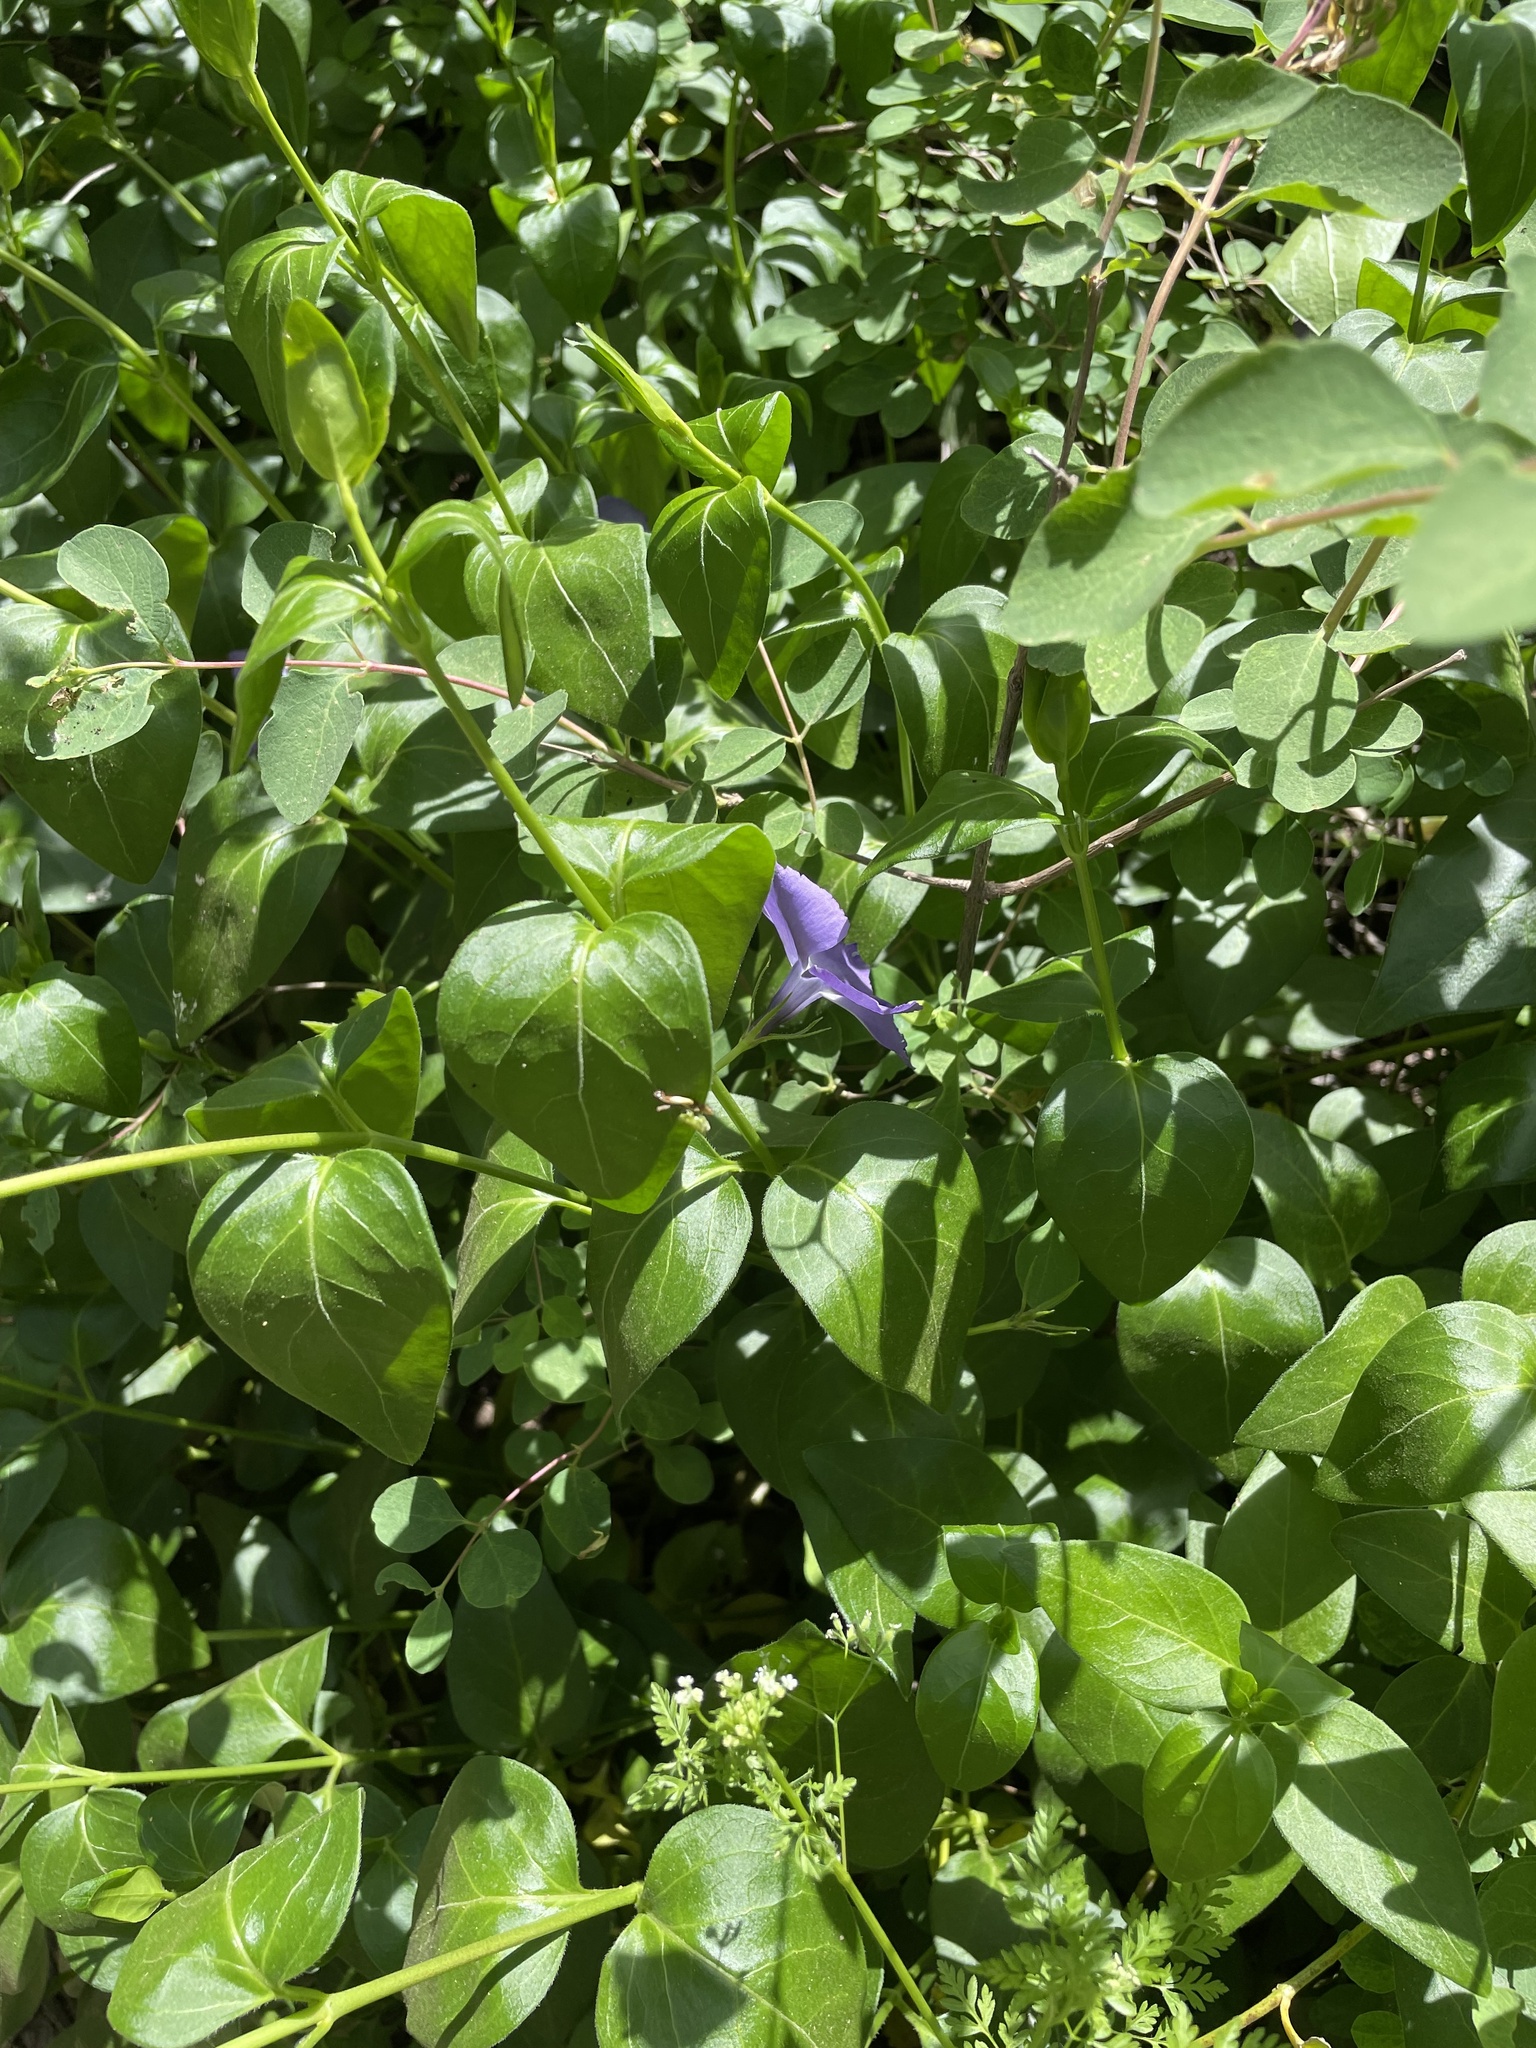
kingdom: Plantae
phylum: Tracheophyta
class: Magnoliopsida
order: Gentianales
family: Apocynaceae
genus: Vinca
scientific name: Vinca major
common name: Greater periwinkle
